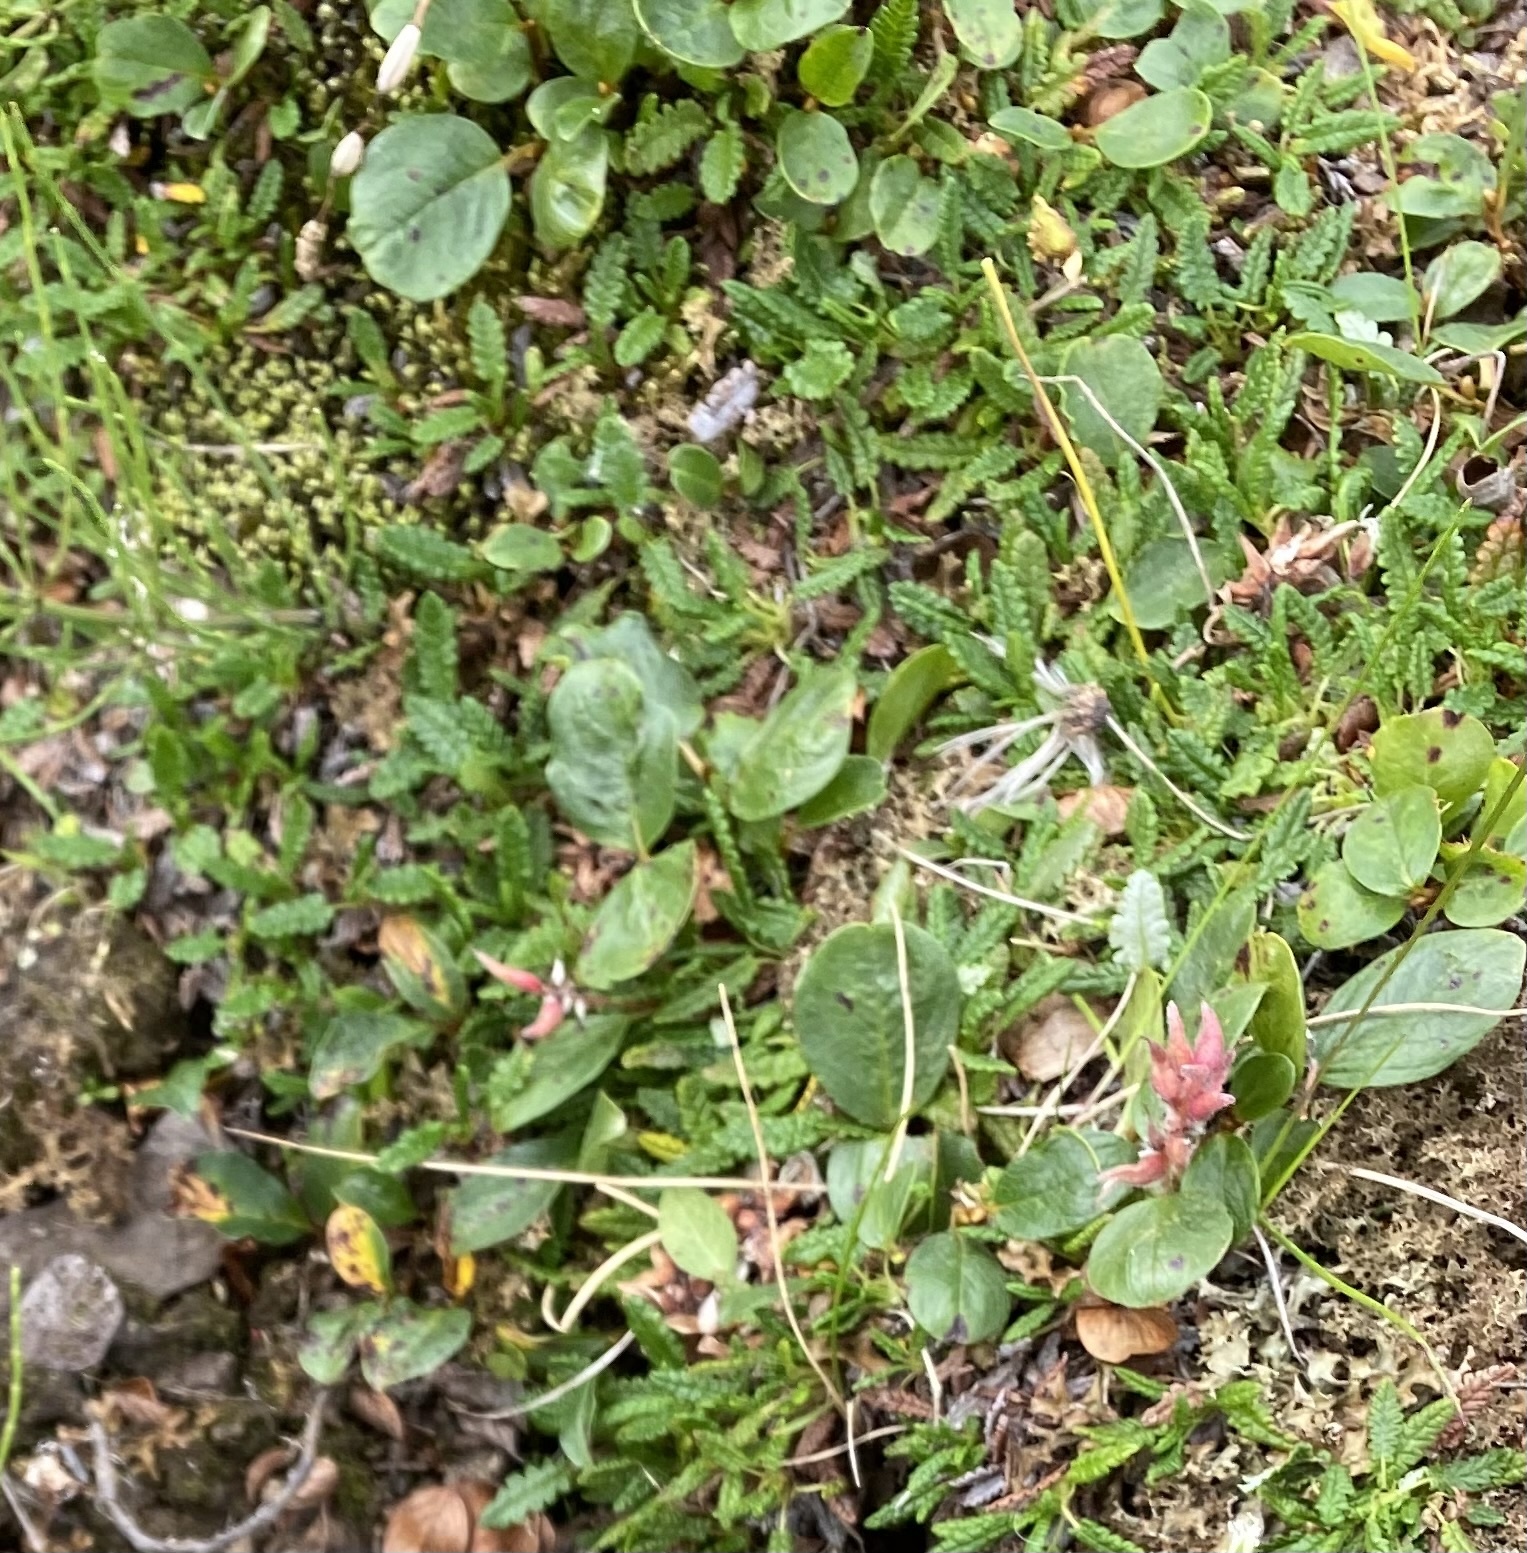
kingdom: Plantae
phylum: Tracheophyta
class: Magnoliopsida
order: Rosales
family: Rosaceae
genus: Dryas
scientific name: Dryas octopetala
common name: Eight-petal mountain-avens
